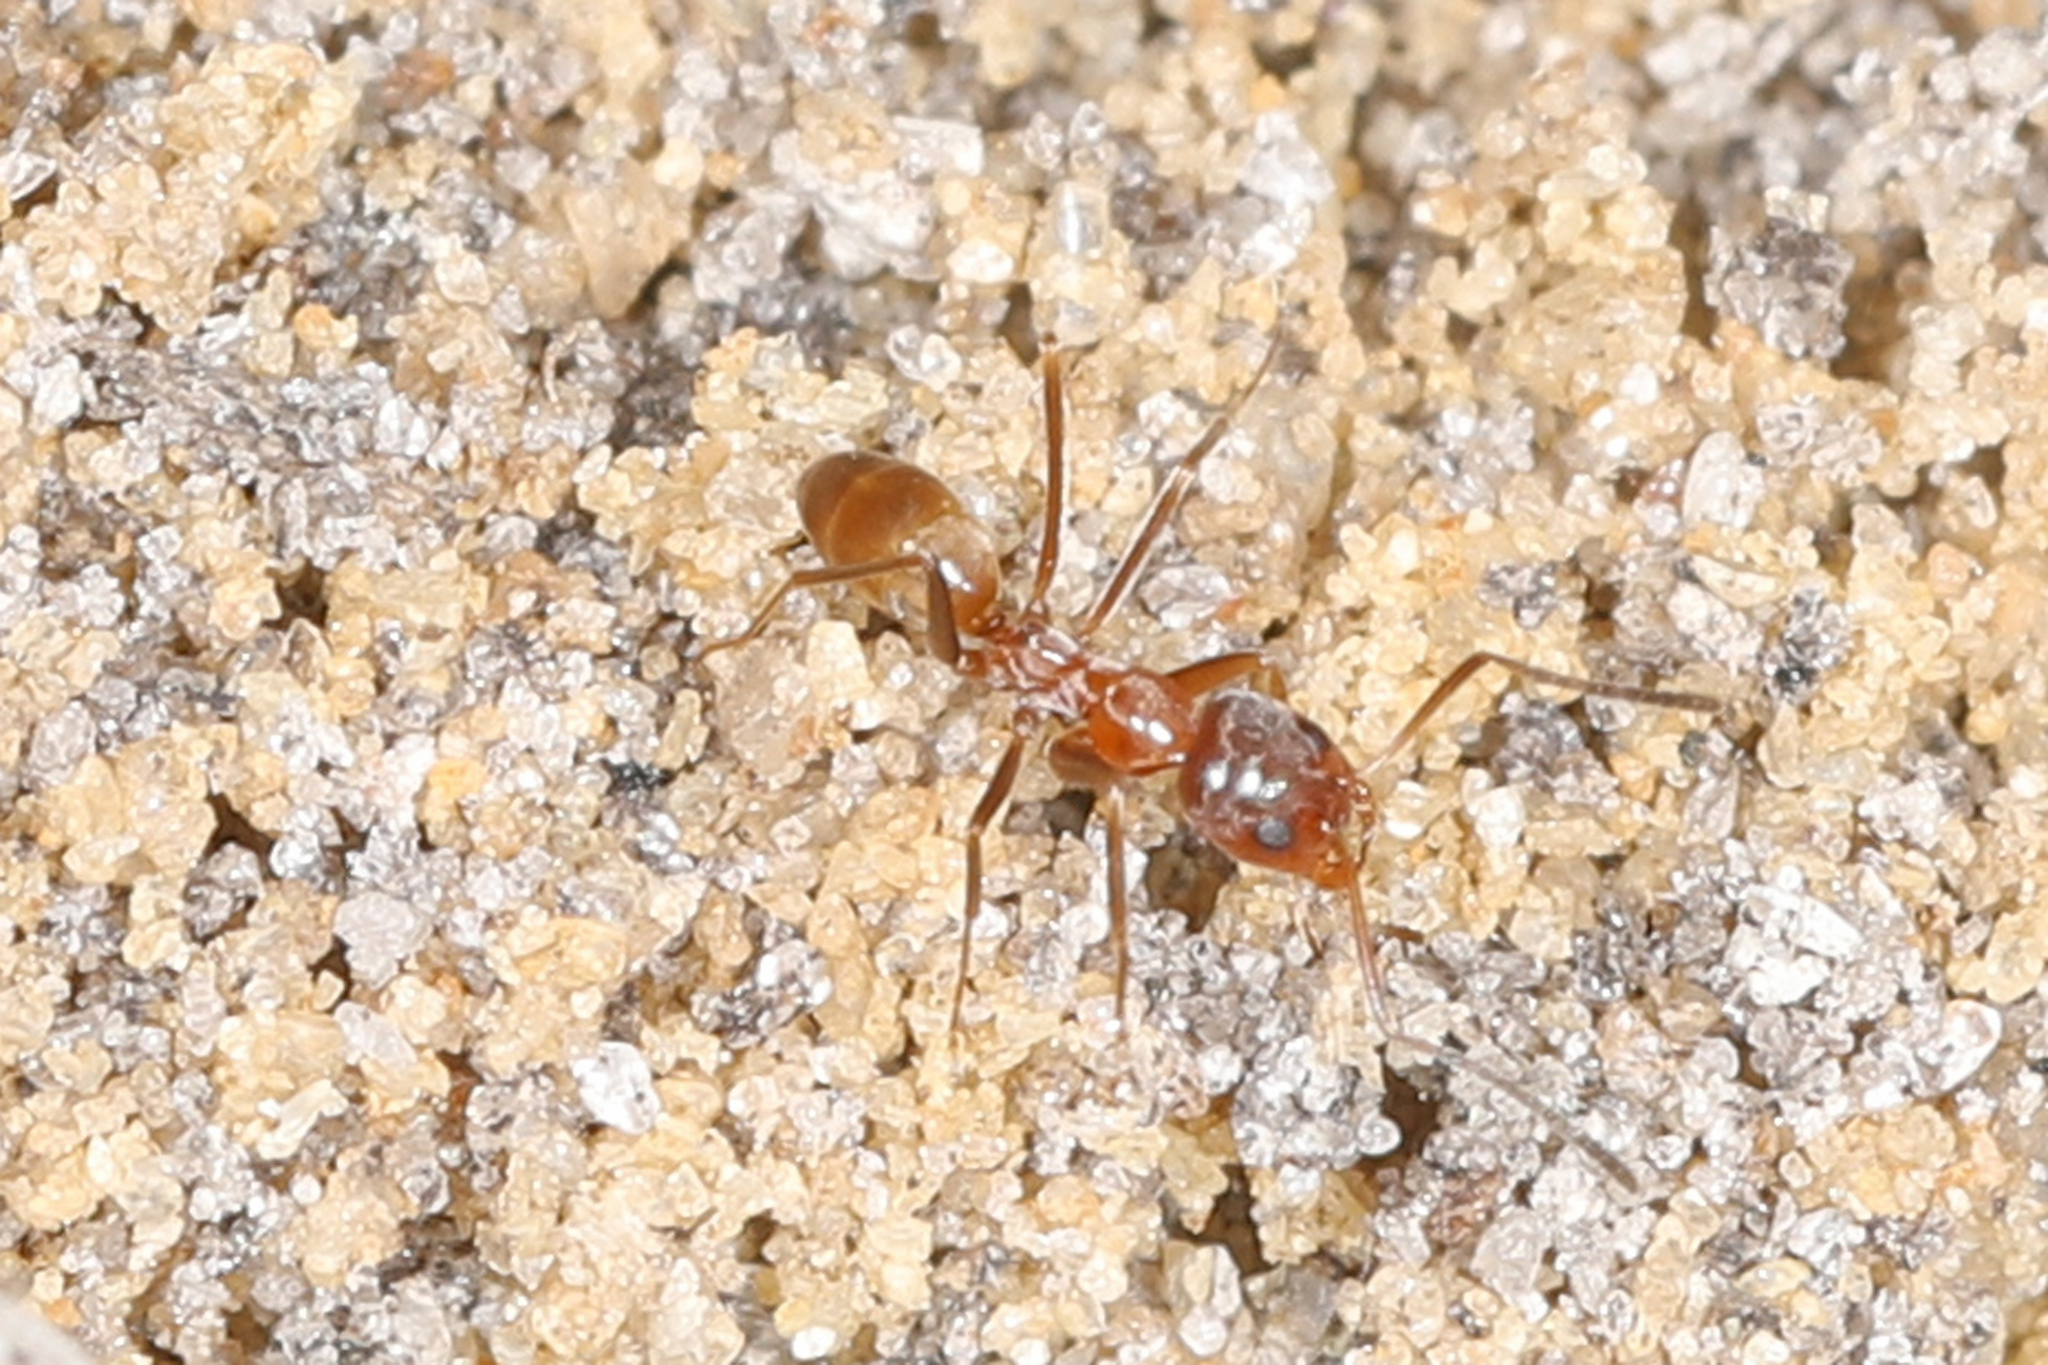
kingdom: Animalia
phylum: Arthropoda
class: Insecta
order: Hymenoptera
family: Formicidae
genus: Dorymyrmex
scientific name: Dorymyrmex bureni
